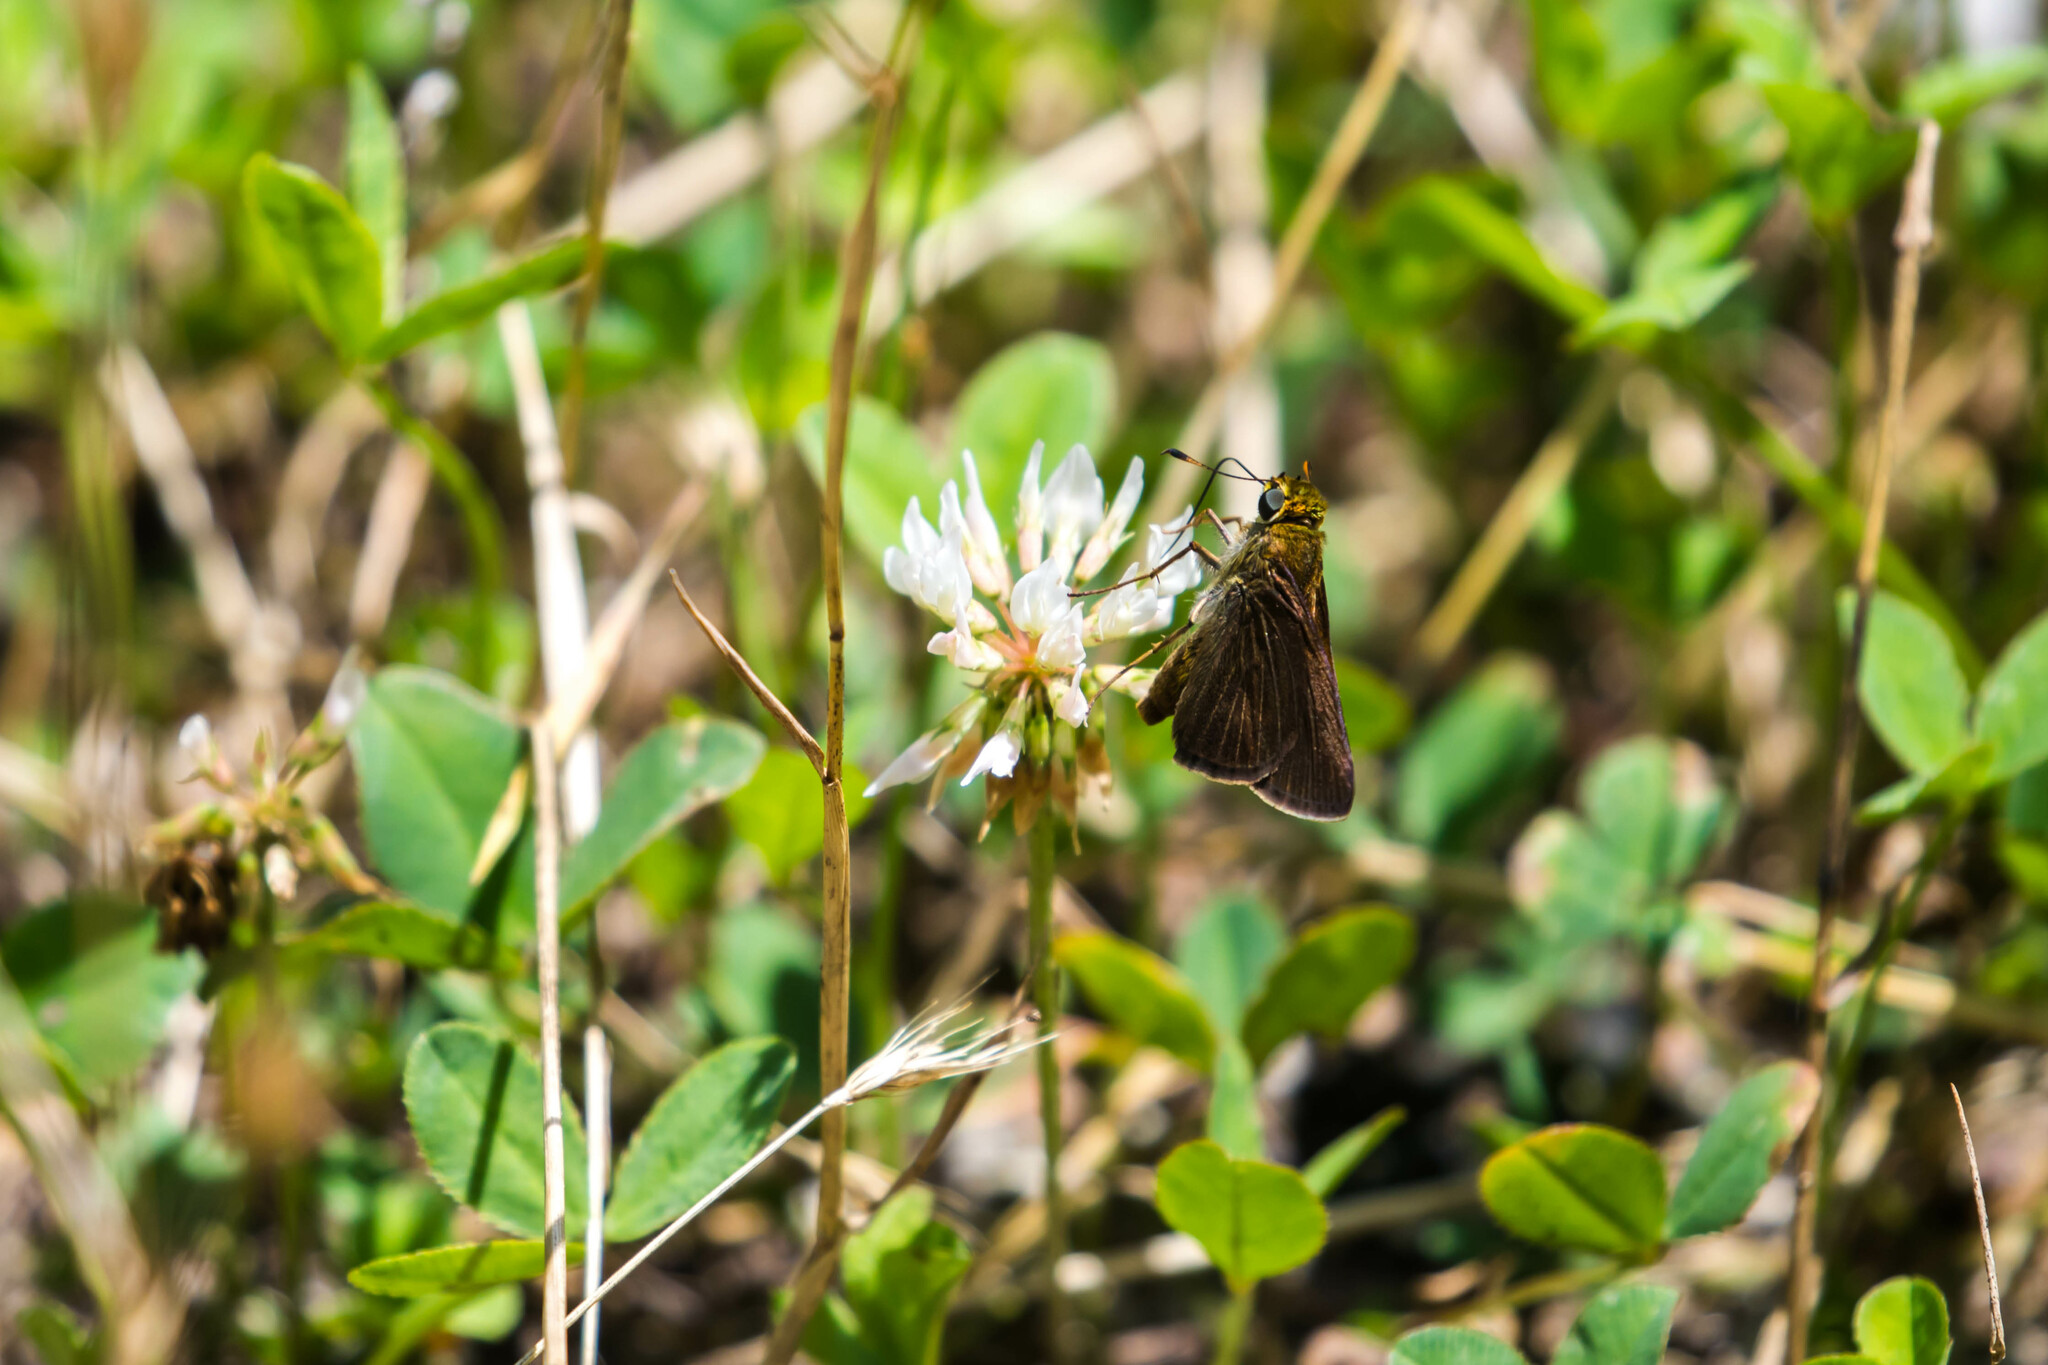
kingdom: Animalia
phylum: Arthropoda
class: Insecta
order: Lepidoptera
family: Hesperiidae
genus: Euphyes
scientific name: Euphyes vestris
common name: Dun skipper
